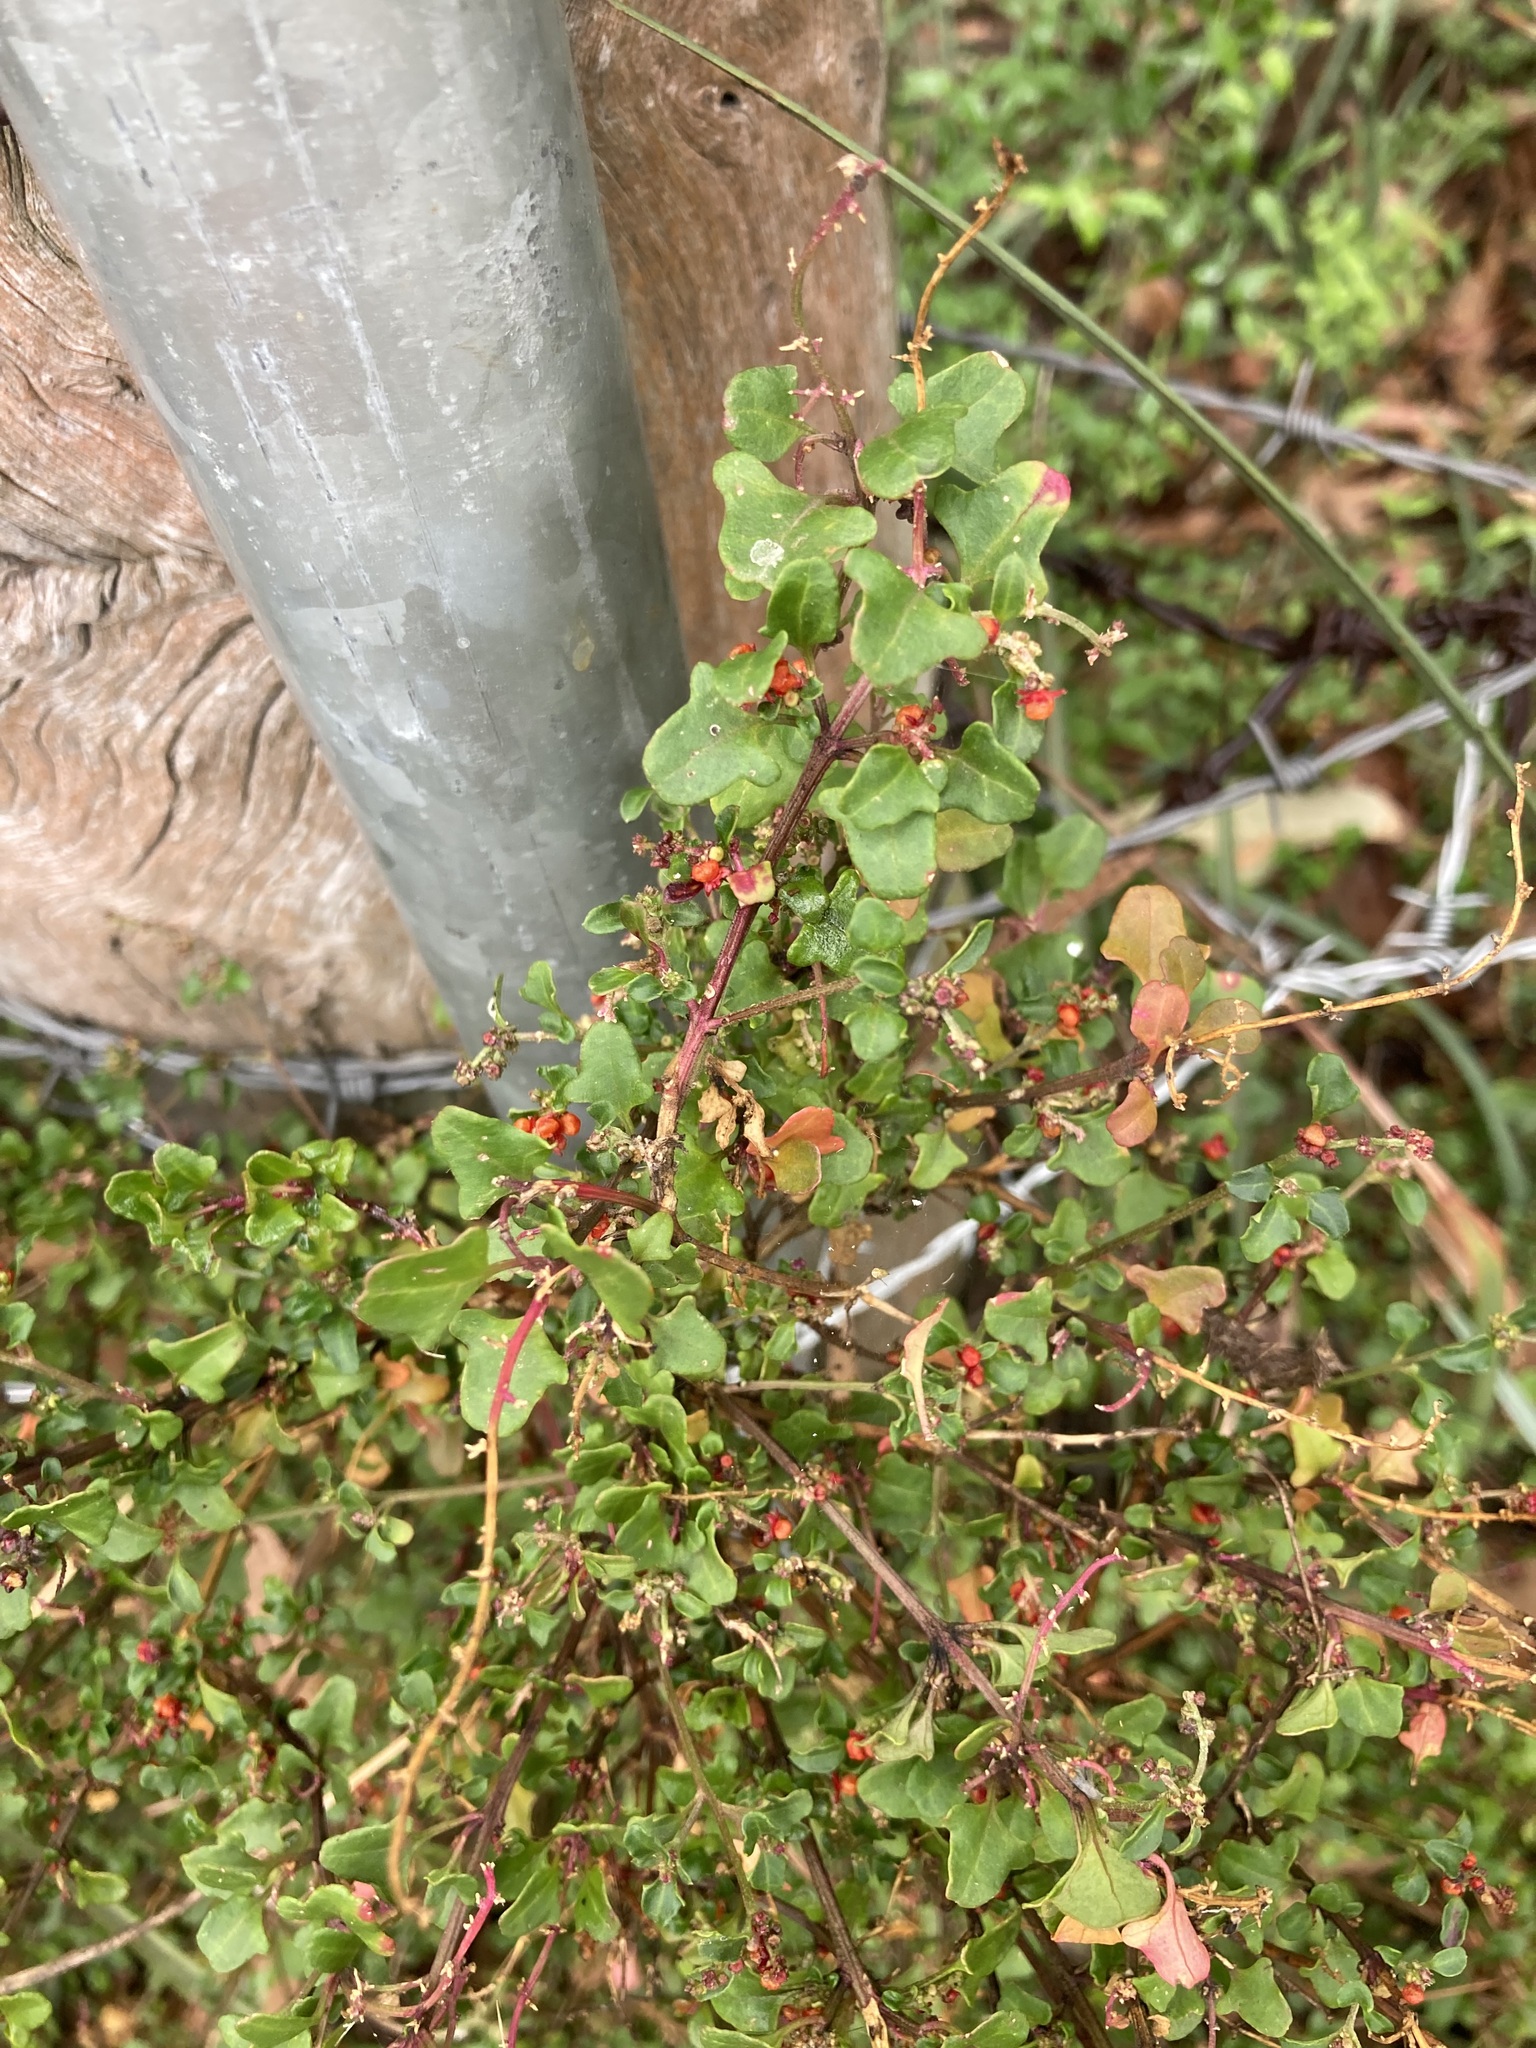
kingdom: Plantae
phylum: Tracheophyta
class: Magnoliopsida
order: Caryophyllales
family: Amaranthaceae
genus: Chenopodium
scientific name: Chenopodium robertianum
